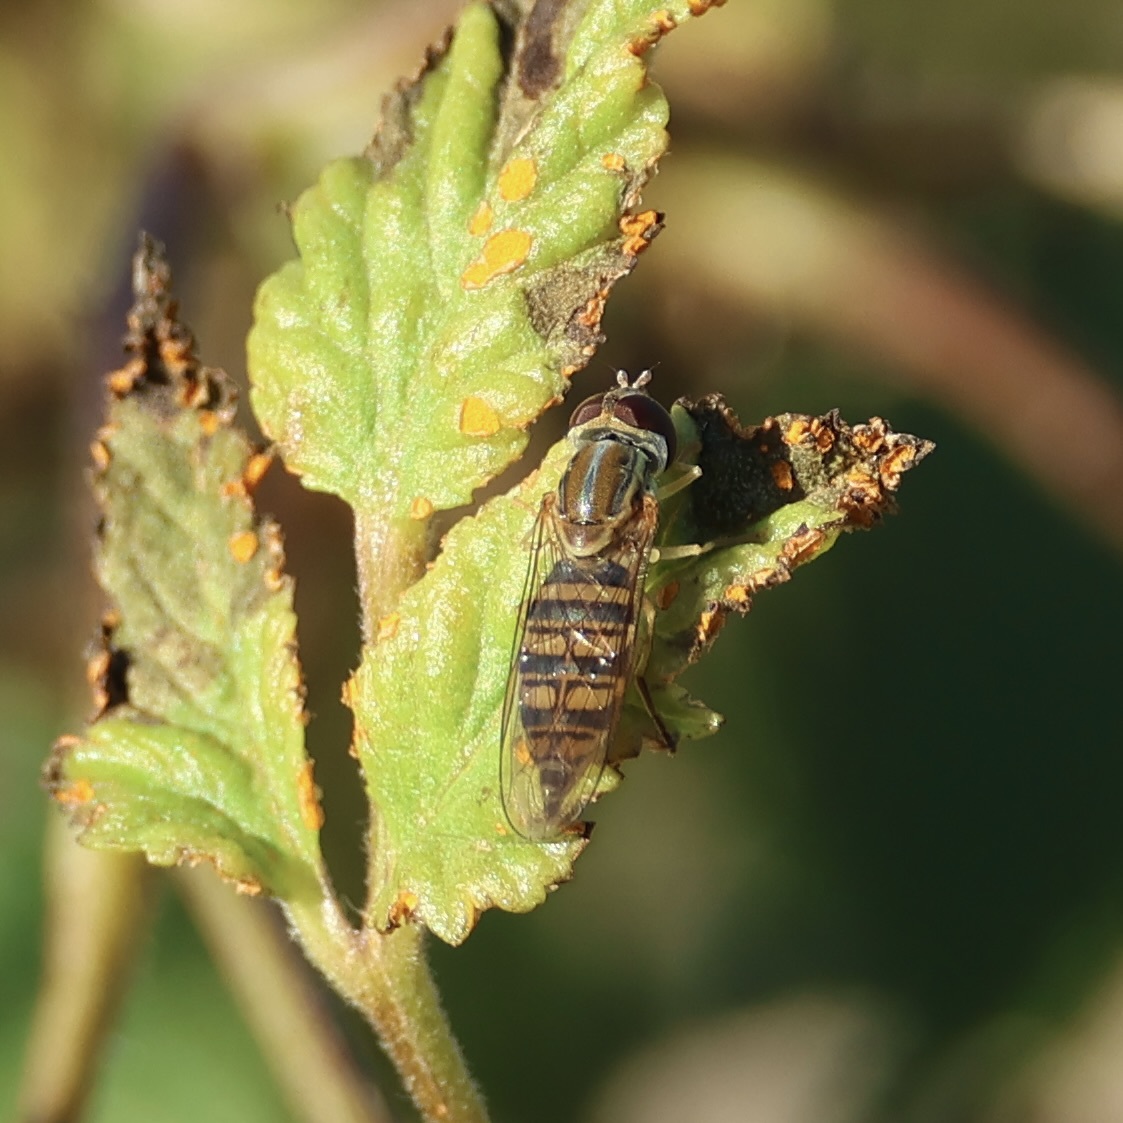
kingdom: Animalia
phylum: Arthropoda
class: Insecta
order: Diptera
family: Syrphidae
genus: Toxomerus
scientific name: Toxomerus politus
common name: Maize calligrapher
